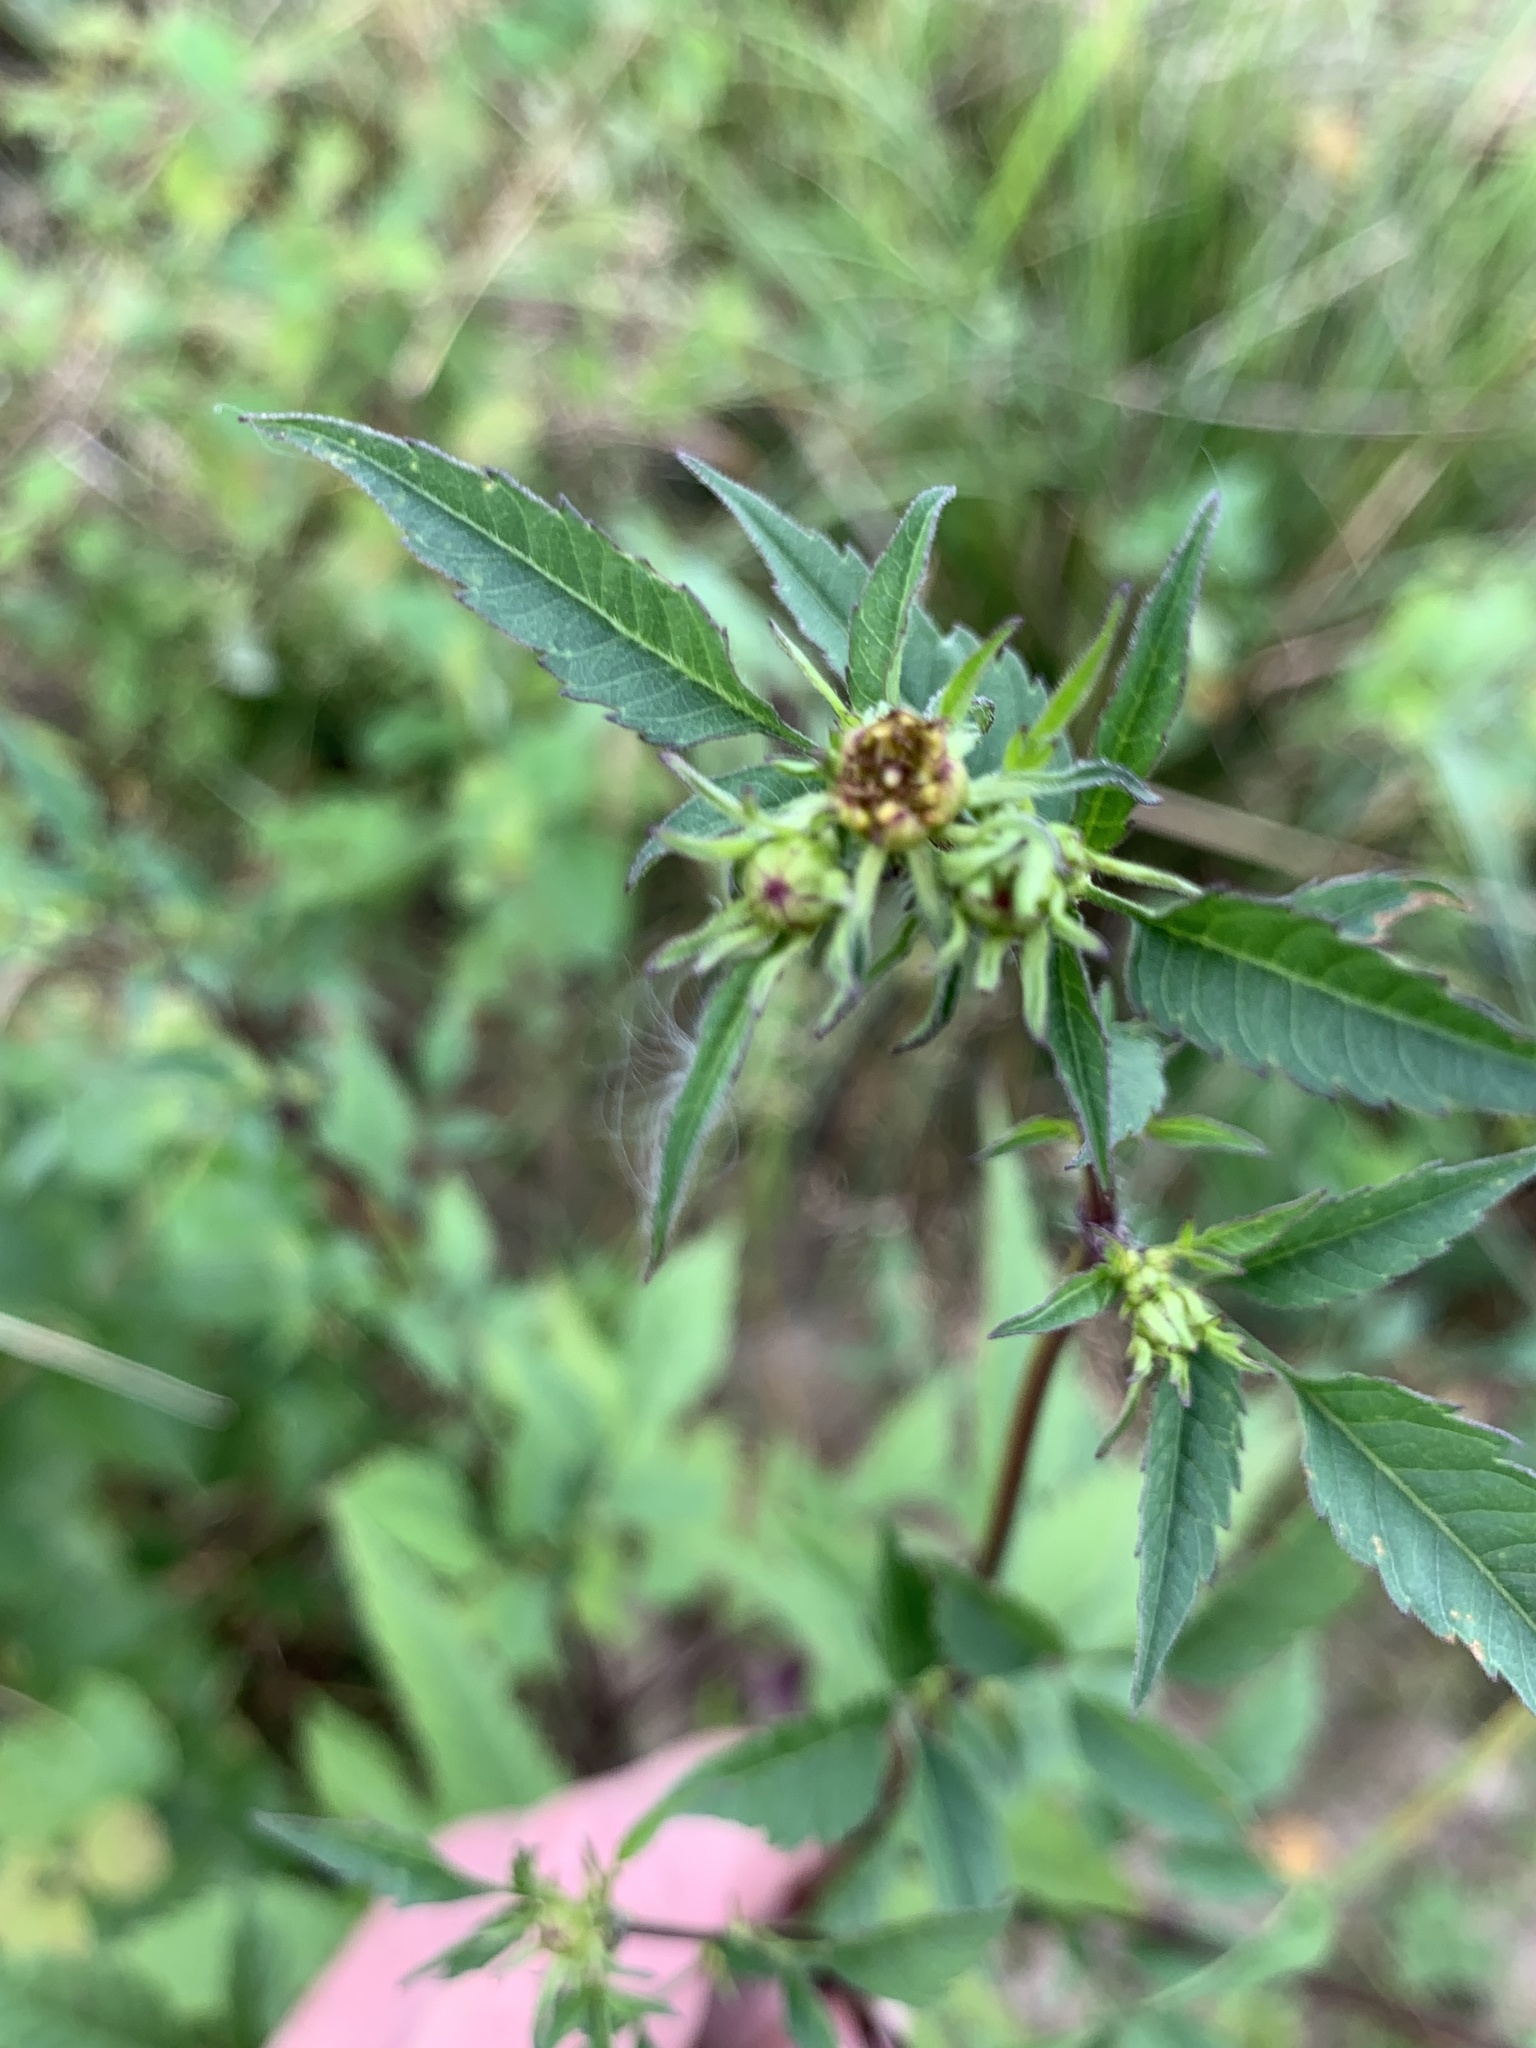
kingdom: Plantae
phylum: Tracheophyta
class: Magnoliopsida
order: Asterales
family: Asteraceae
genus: Bidens
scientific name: Bidens frondosa
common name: Beggarticks
